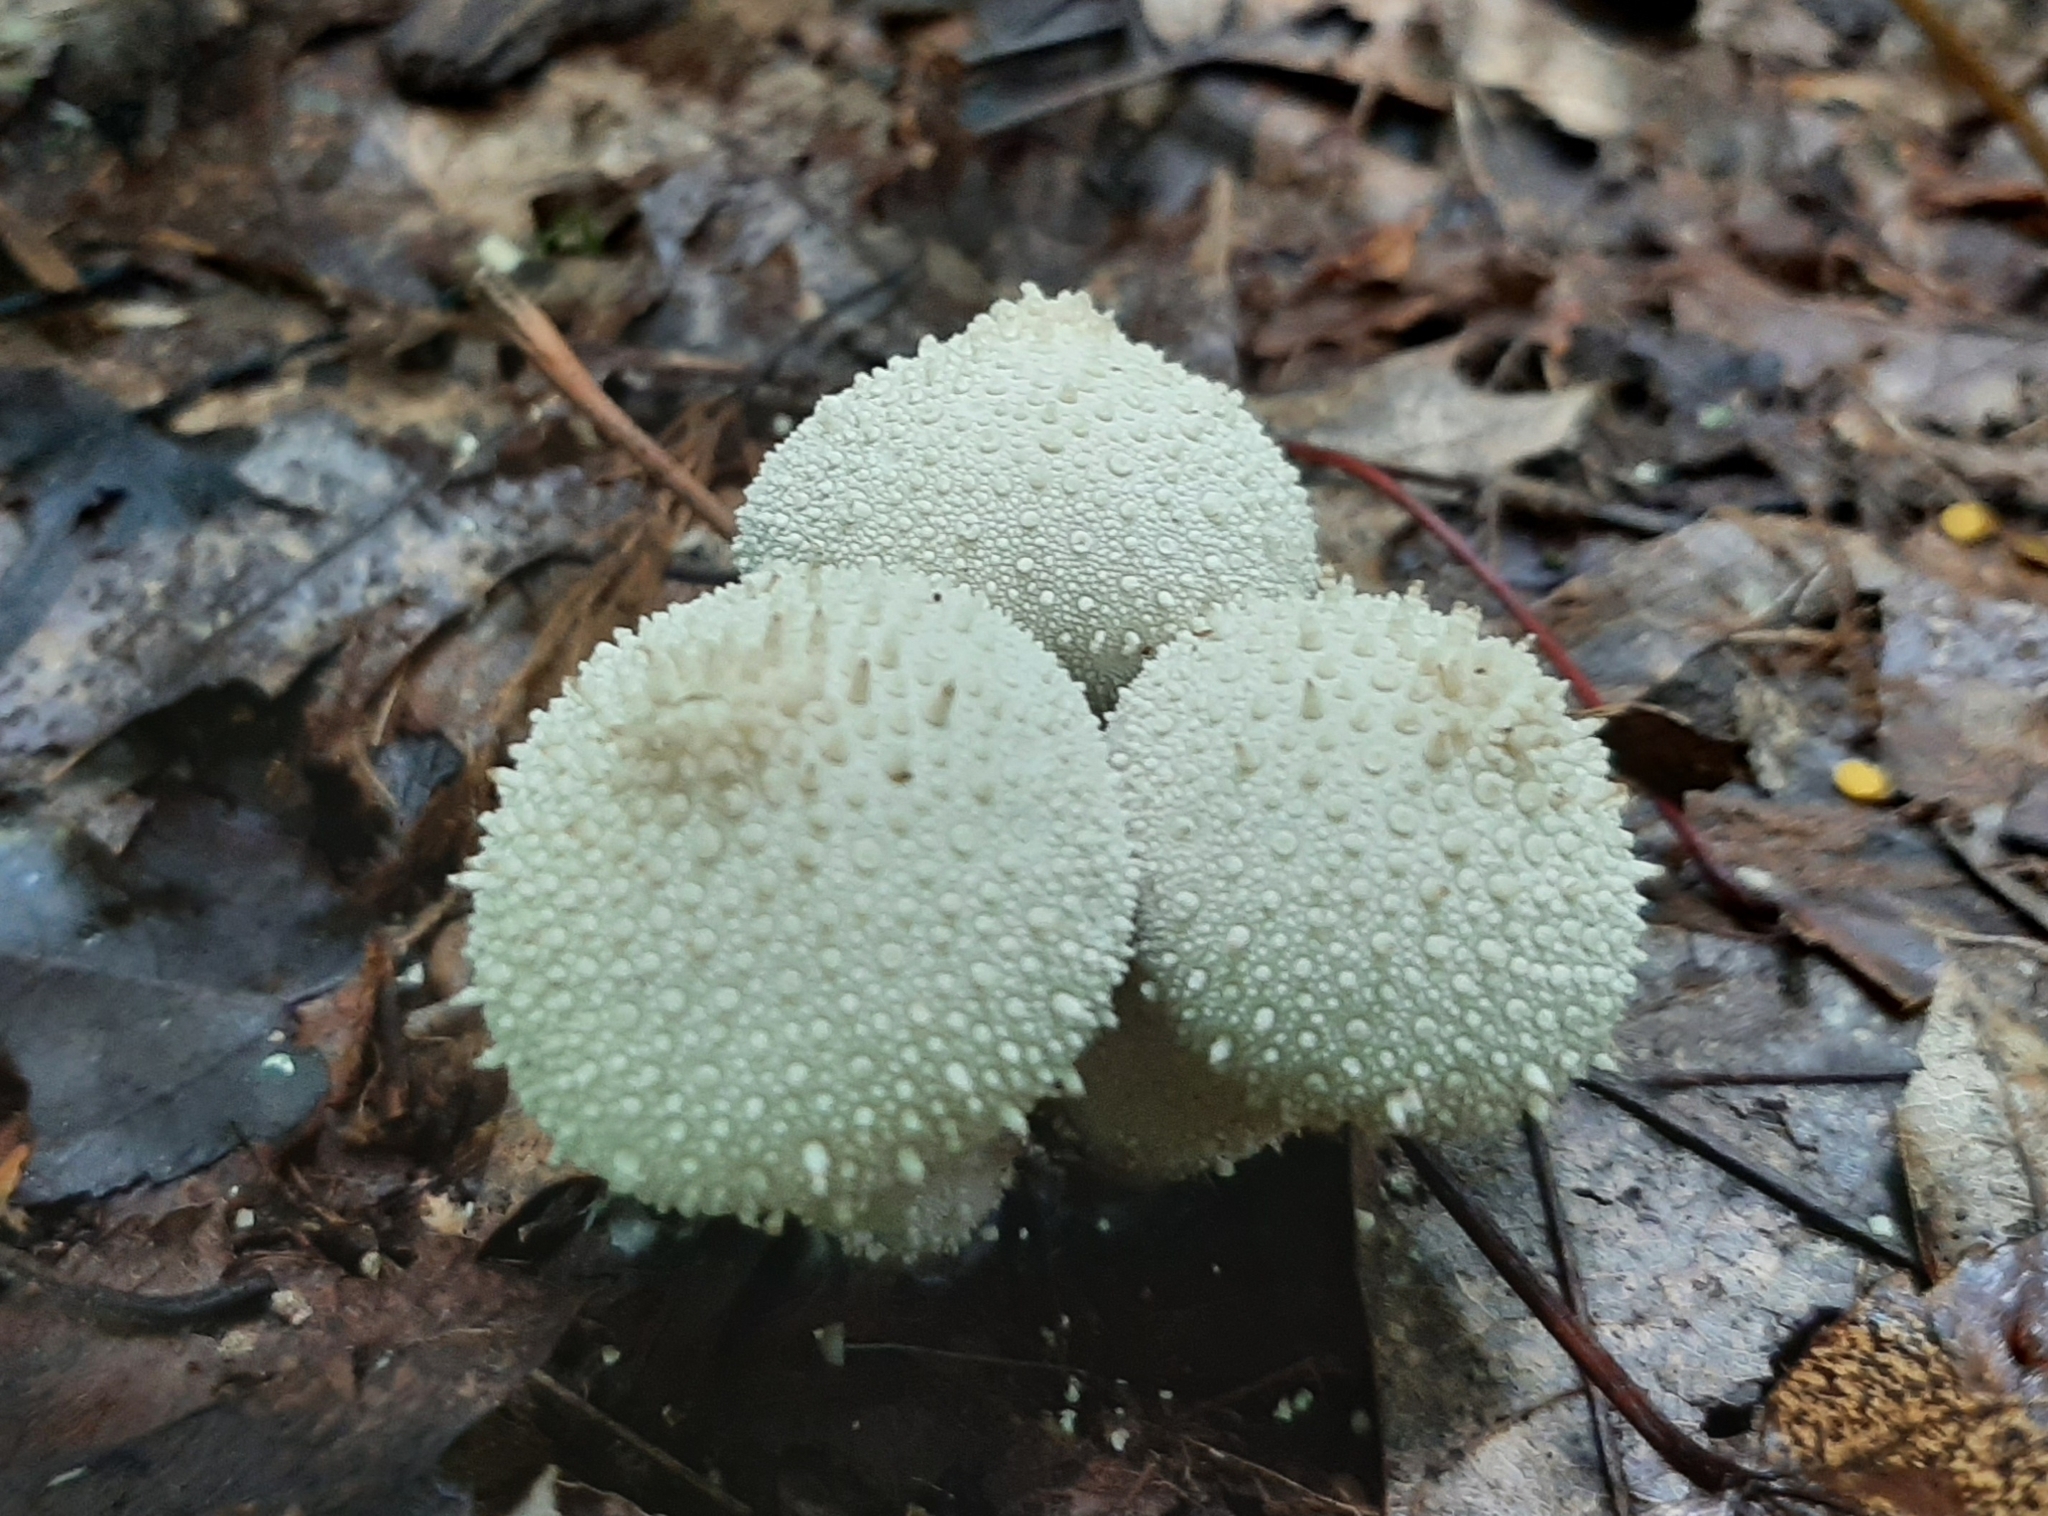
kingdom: Fungi
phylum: Basidiomycota
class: Agaricomycetes
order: Agaricales
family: Lycoperdaceae
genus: Lycoperdon
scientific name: Lycoperdon perlatum
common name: Common puffball
